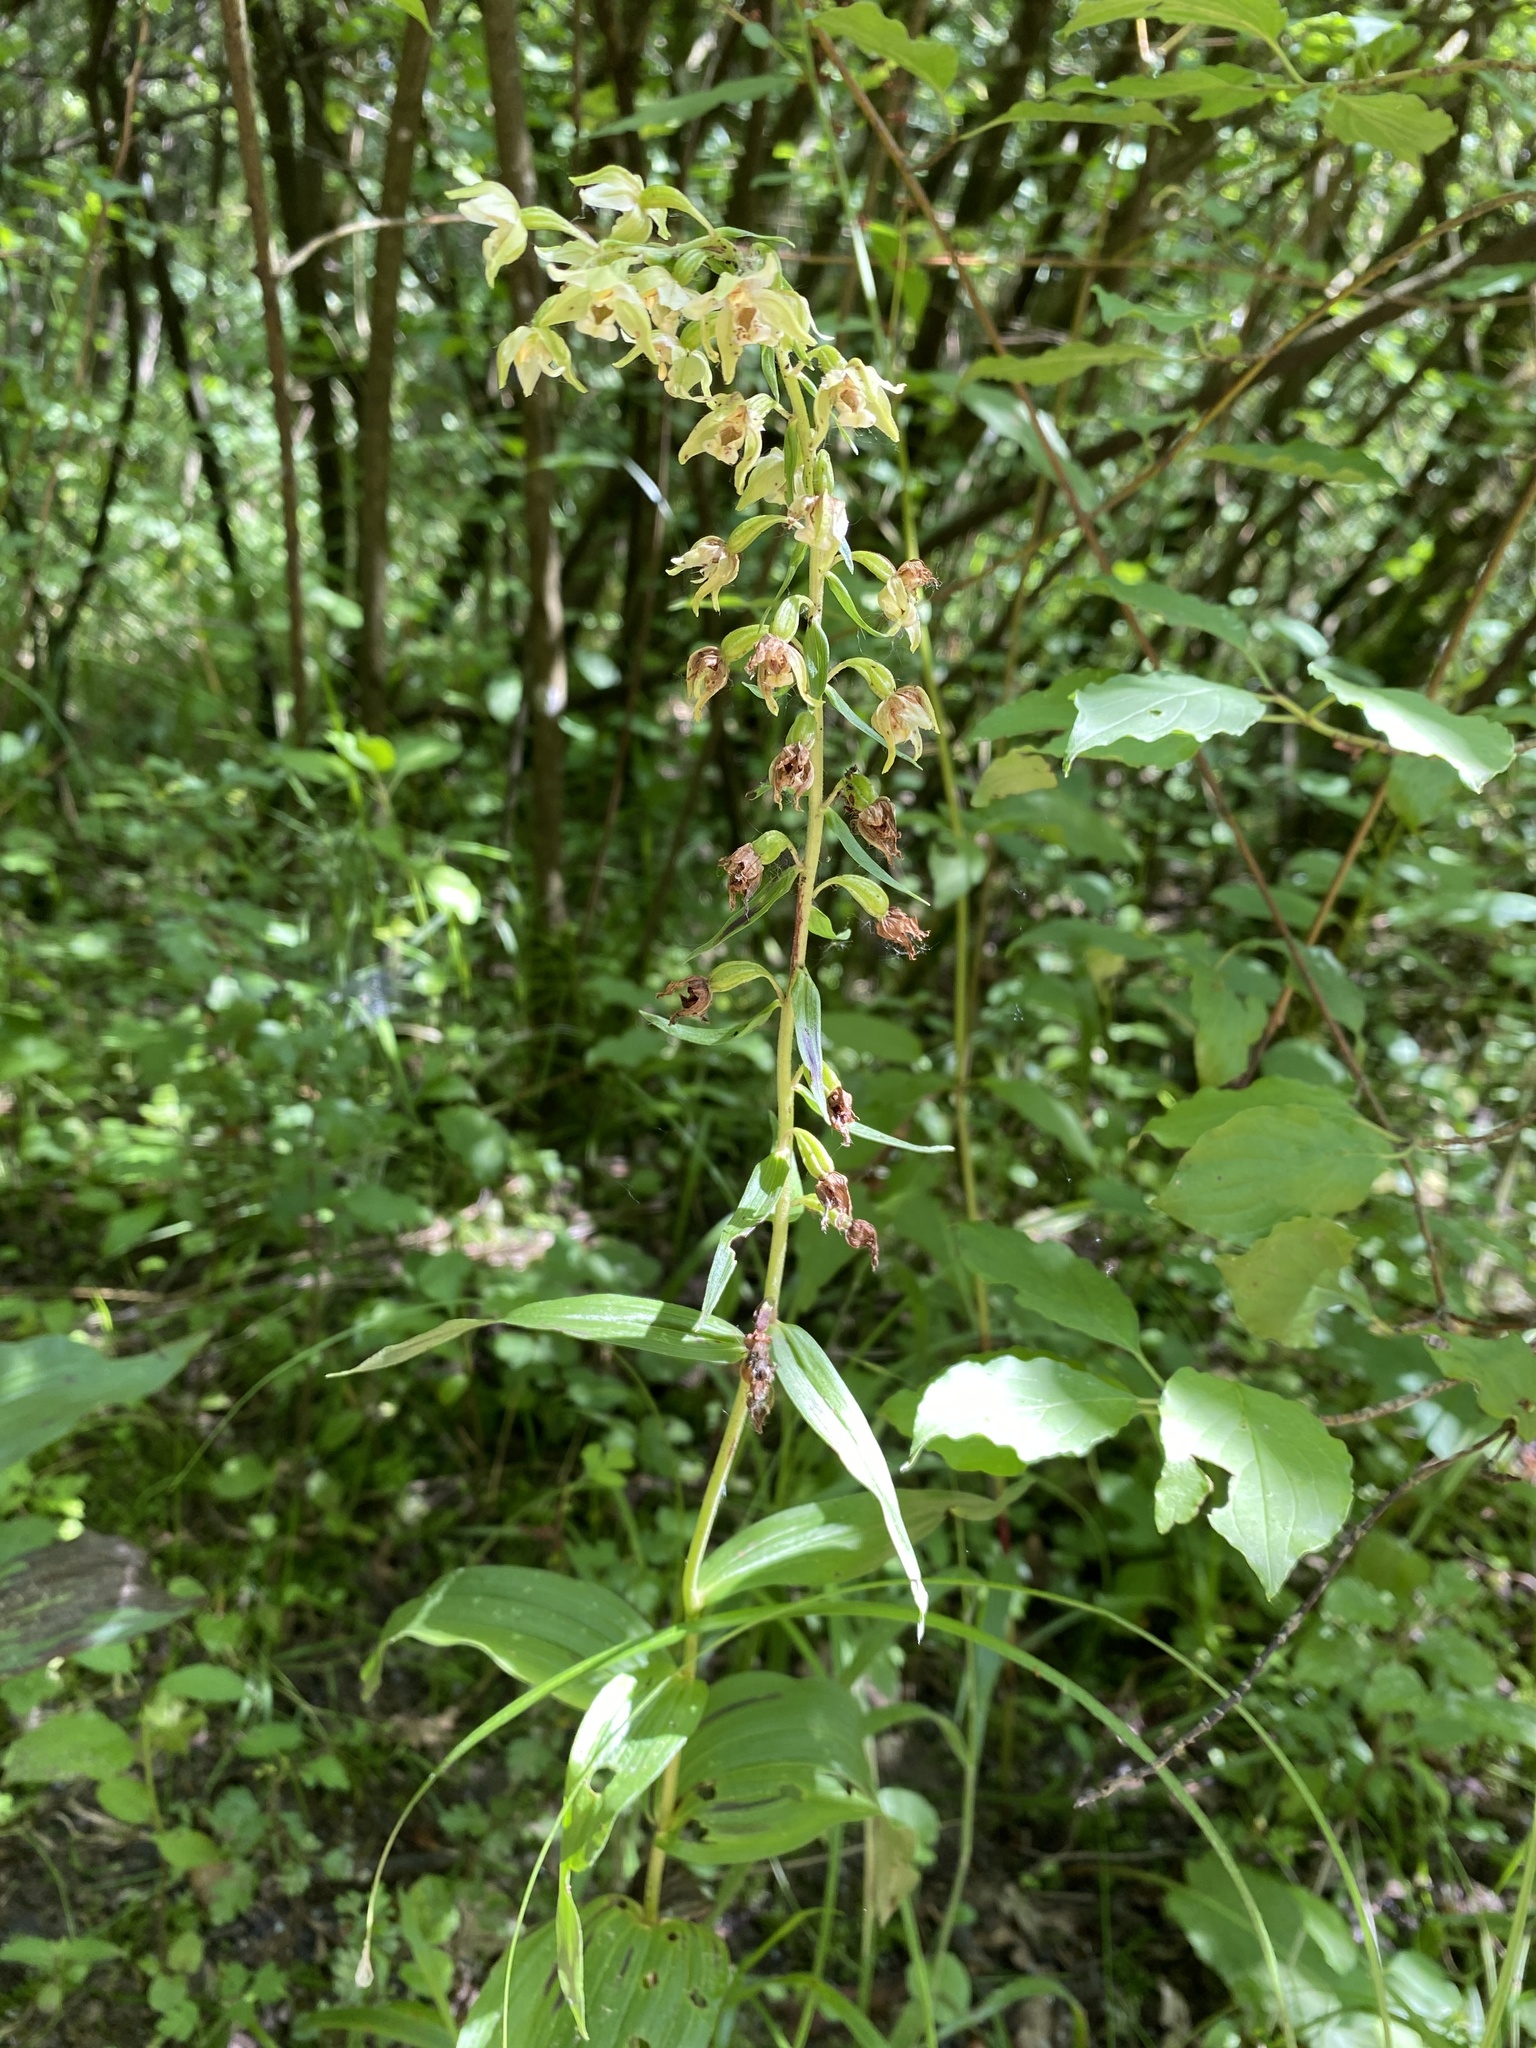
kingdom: Plantae
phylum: Tracheophyta
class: Liliopsida
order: Asparagales
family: Orchidaceae
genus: Epipactis
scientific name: Epipactis helleborine
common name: Broad-leaved helleborine
